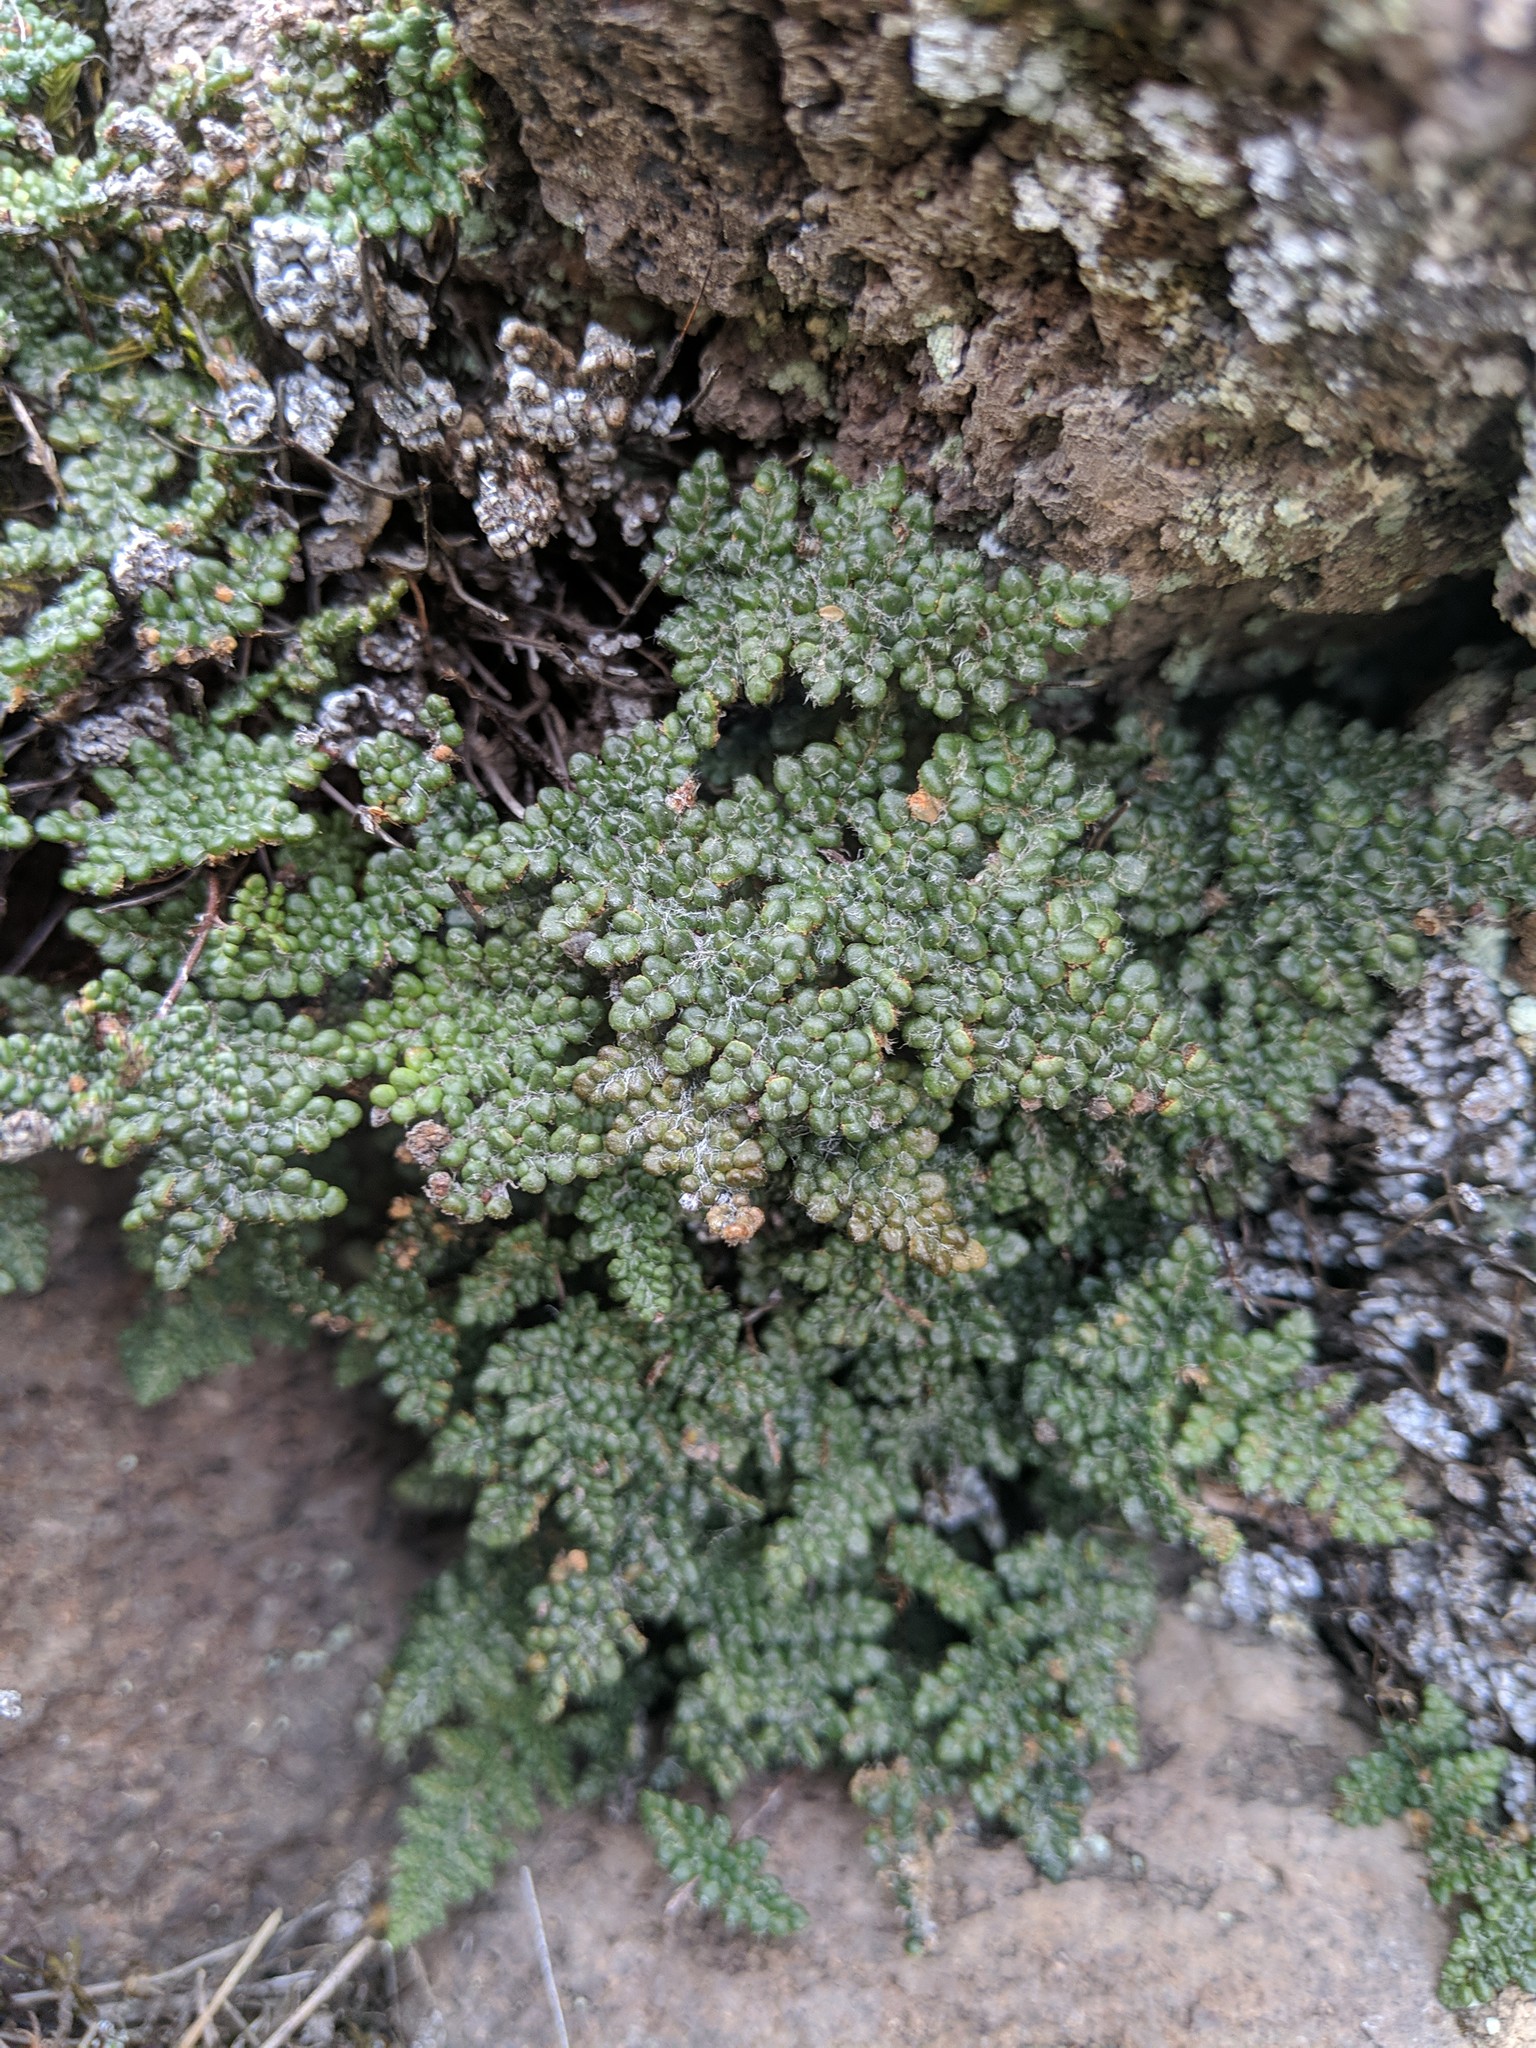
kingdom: Plantae
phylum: Tracheophyta
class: Polypodiopsida
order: Polypodiales
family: Pteridaceae
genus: Myriopteris
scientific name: Myriopteris intertexta
